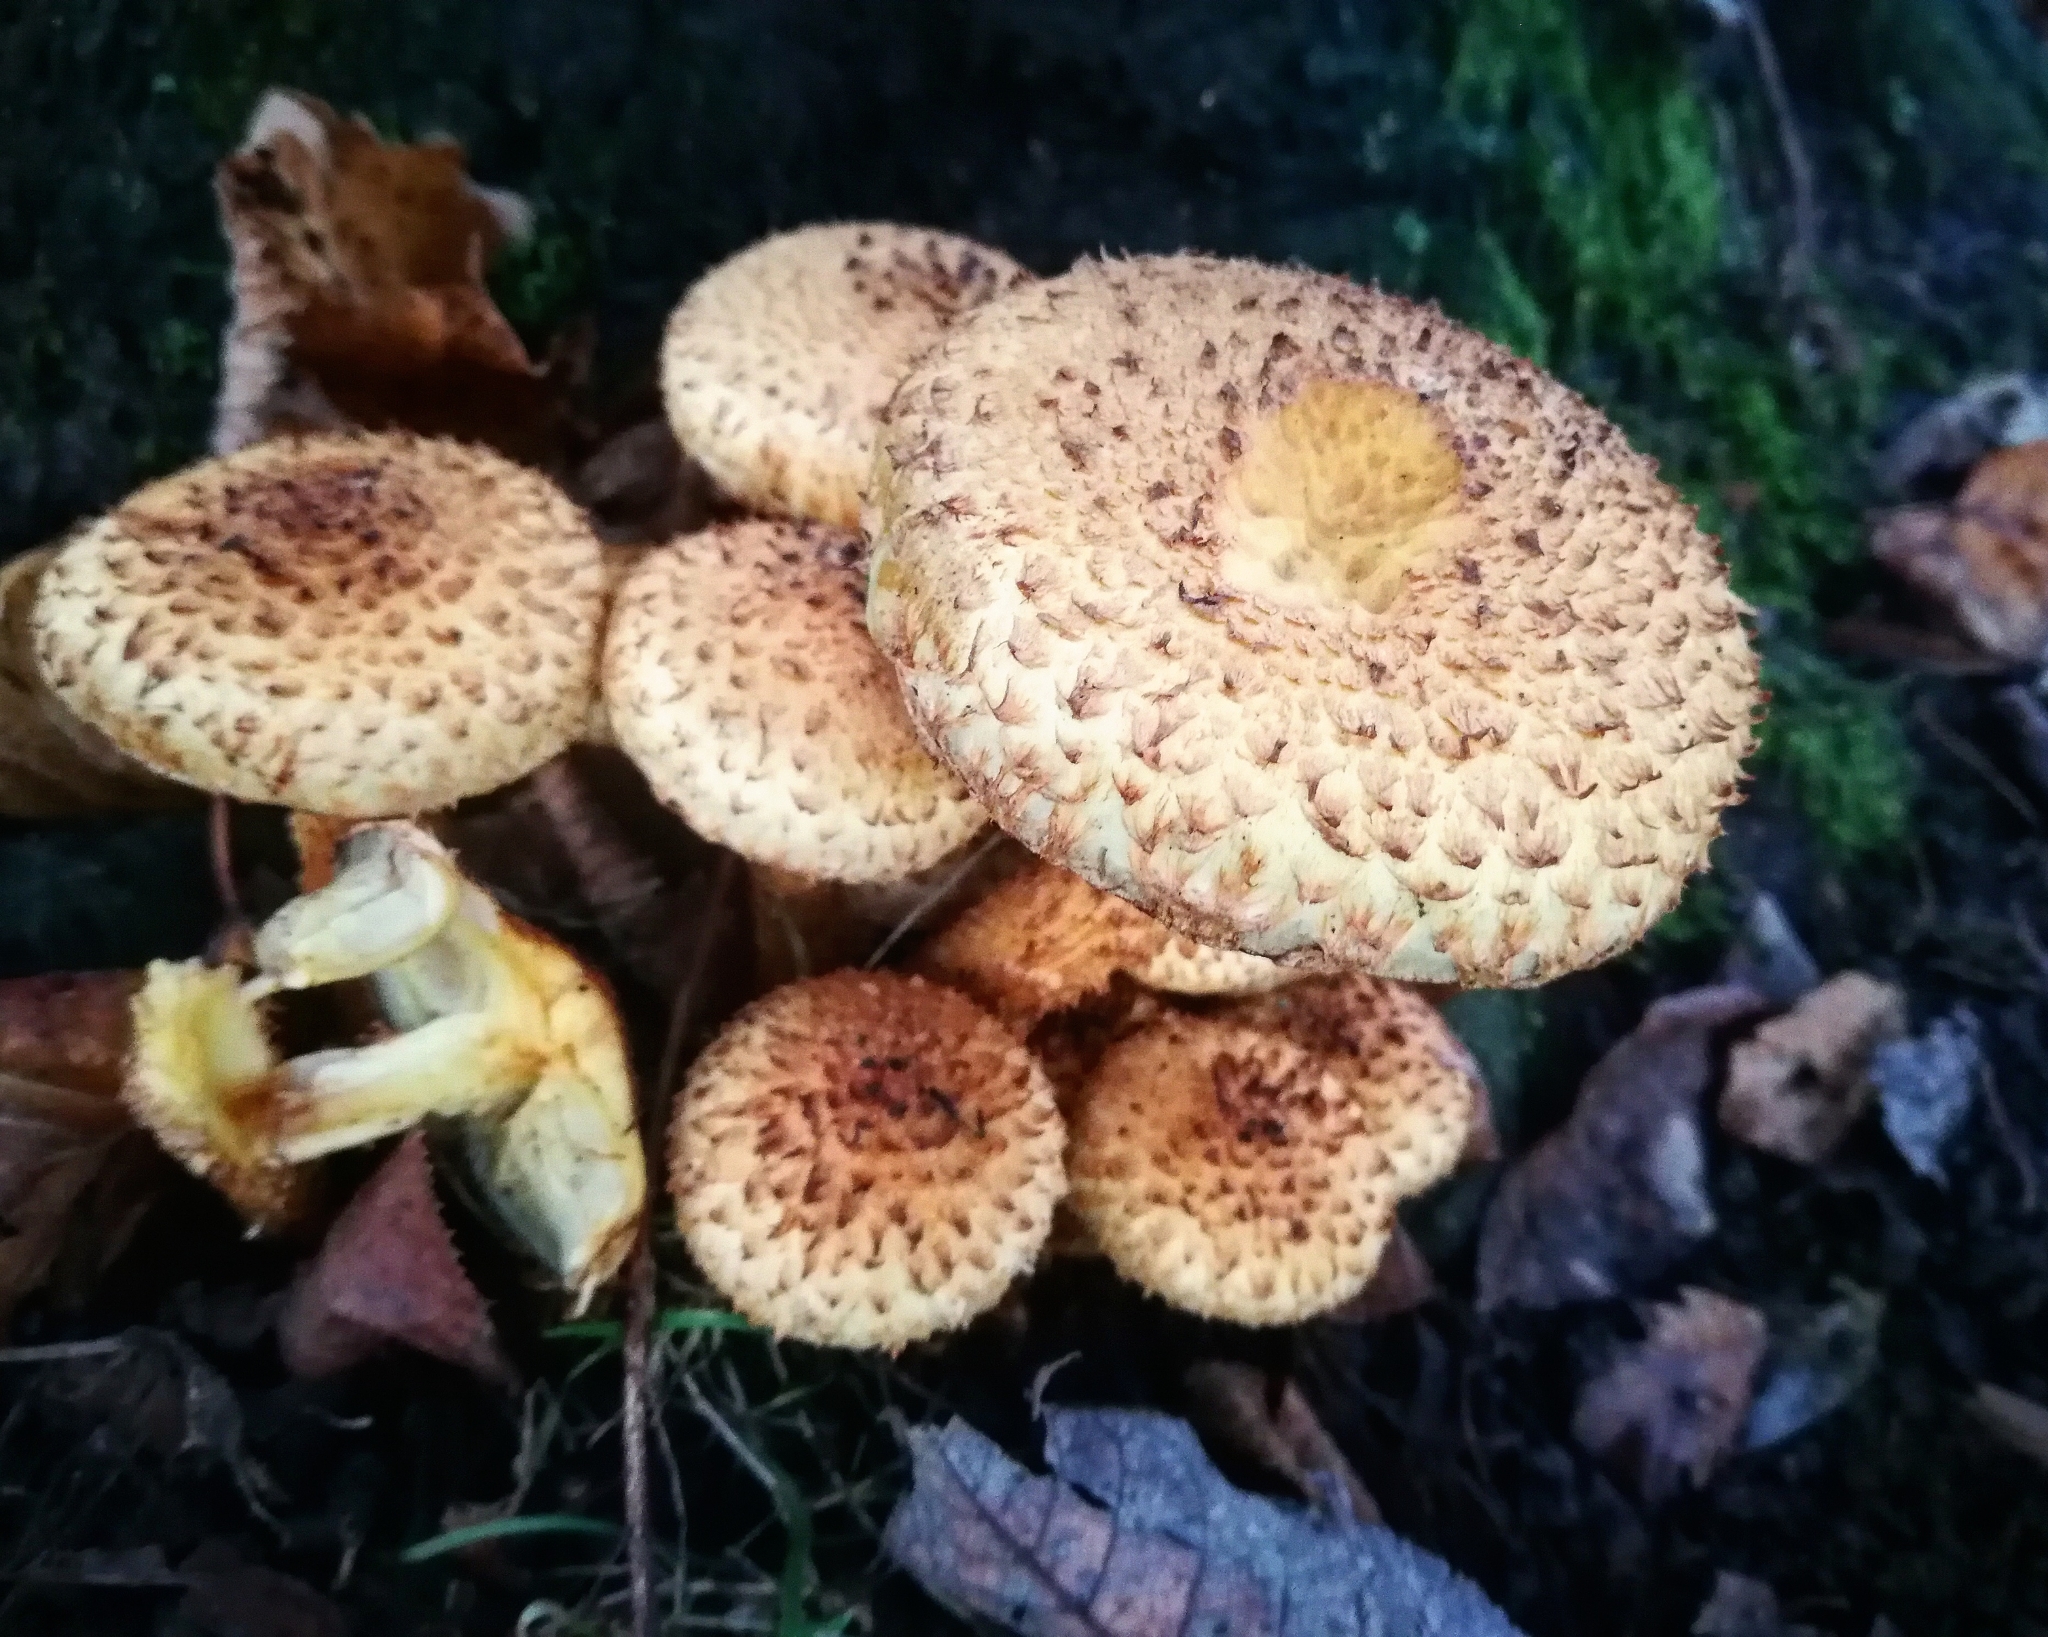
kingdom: Fungi
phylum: Basidiomycota
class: Agaricomycetes
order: Agaricales
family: Strophariaceae
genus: Pholiota
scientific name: Pholiota squarrosa
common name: Shaggy pholiota
